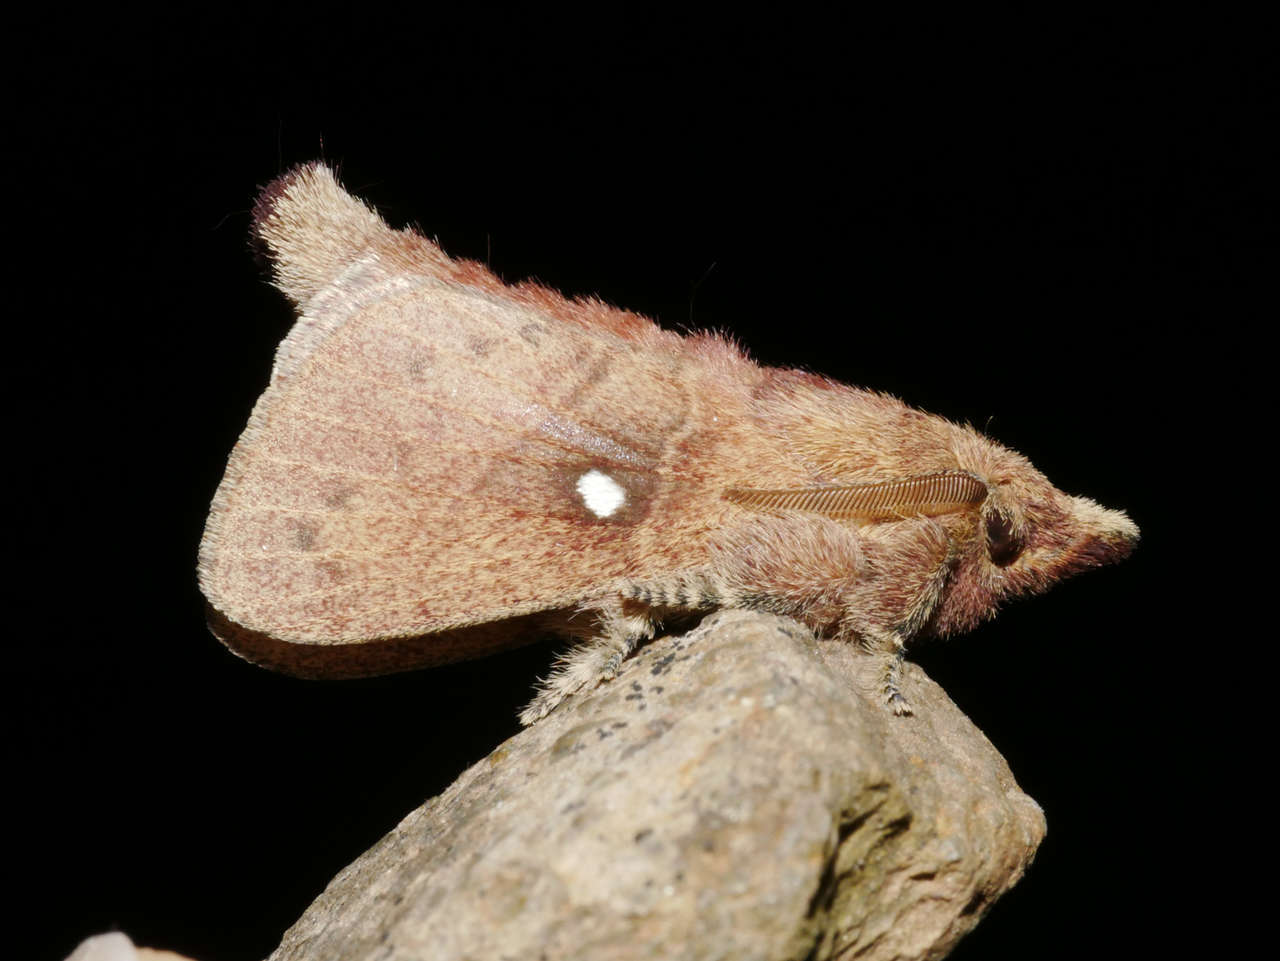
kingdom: Animalia
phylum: Arthropoda
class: Insecta
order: Lepidoptera
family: Lasiocampidae
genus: Opsirhina
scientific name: Opsirhina lechriodes
